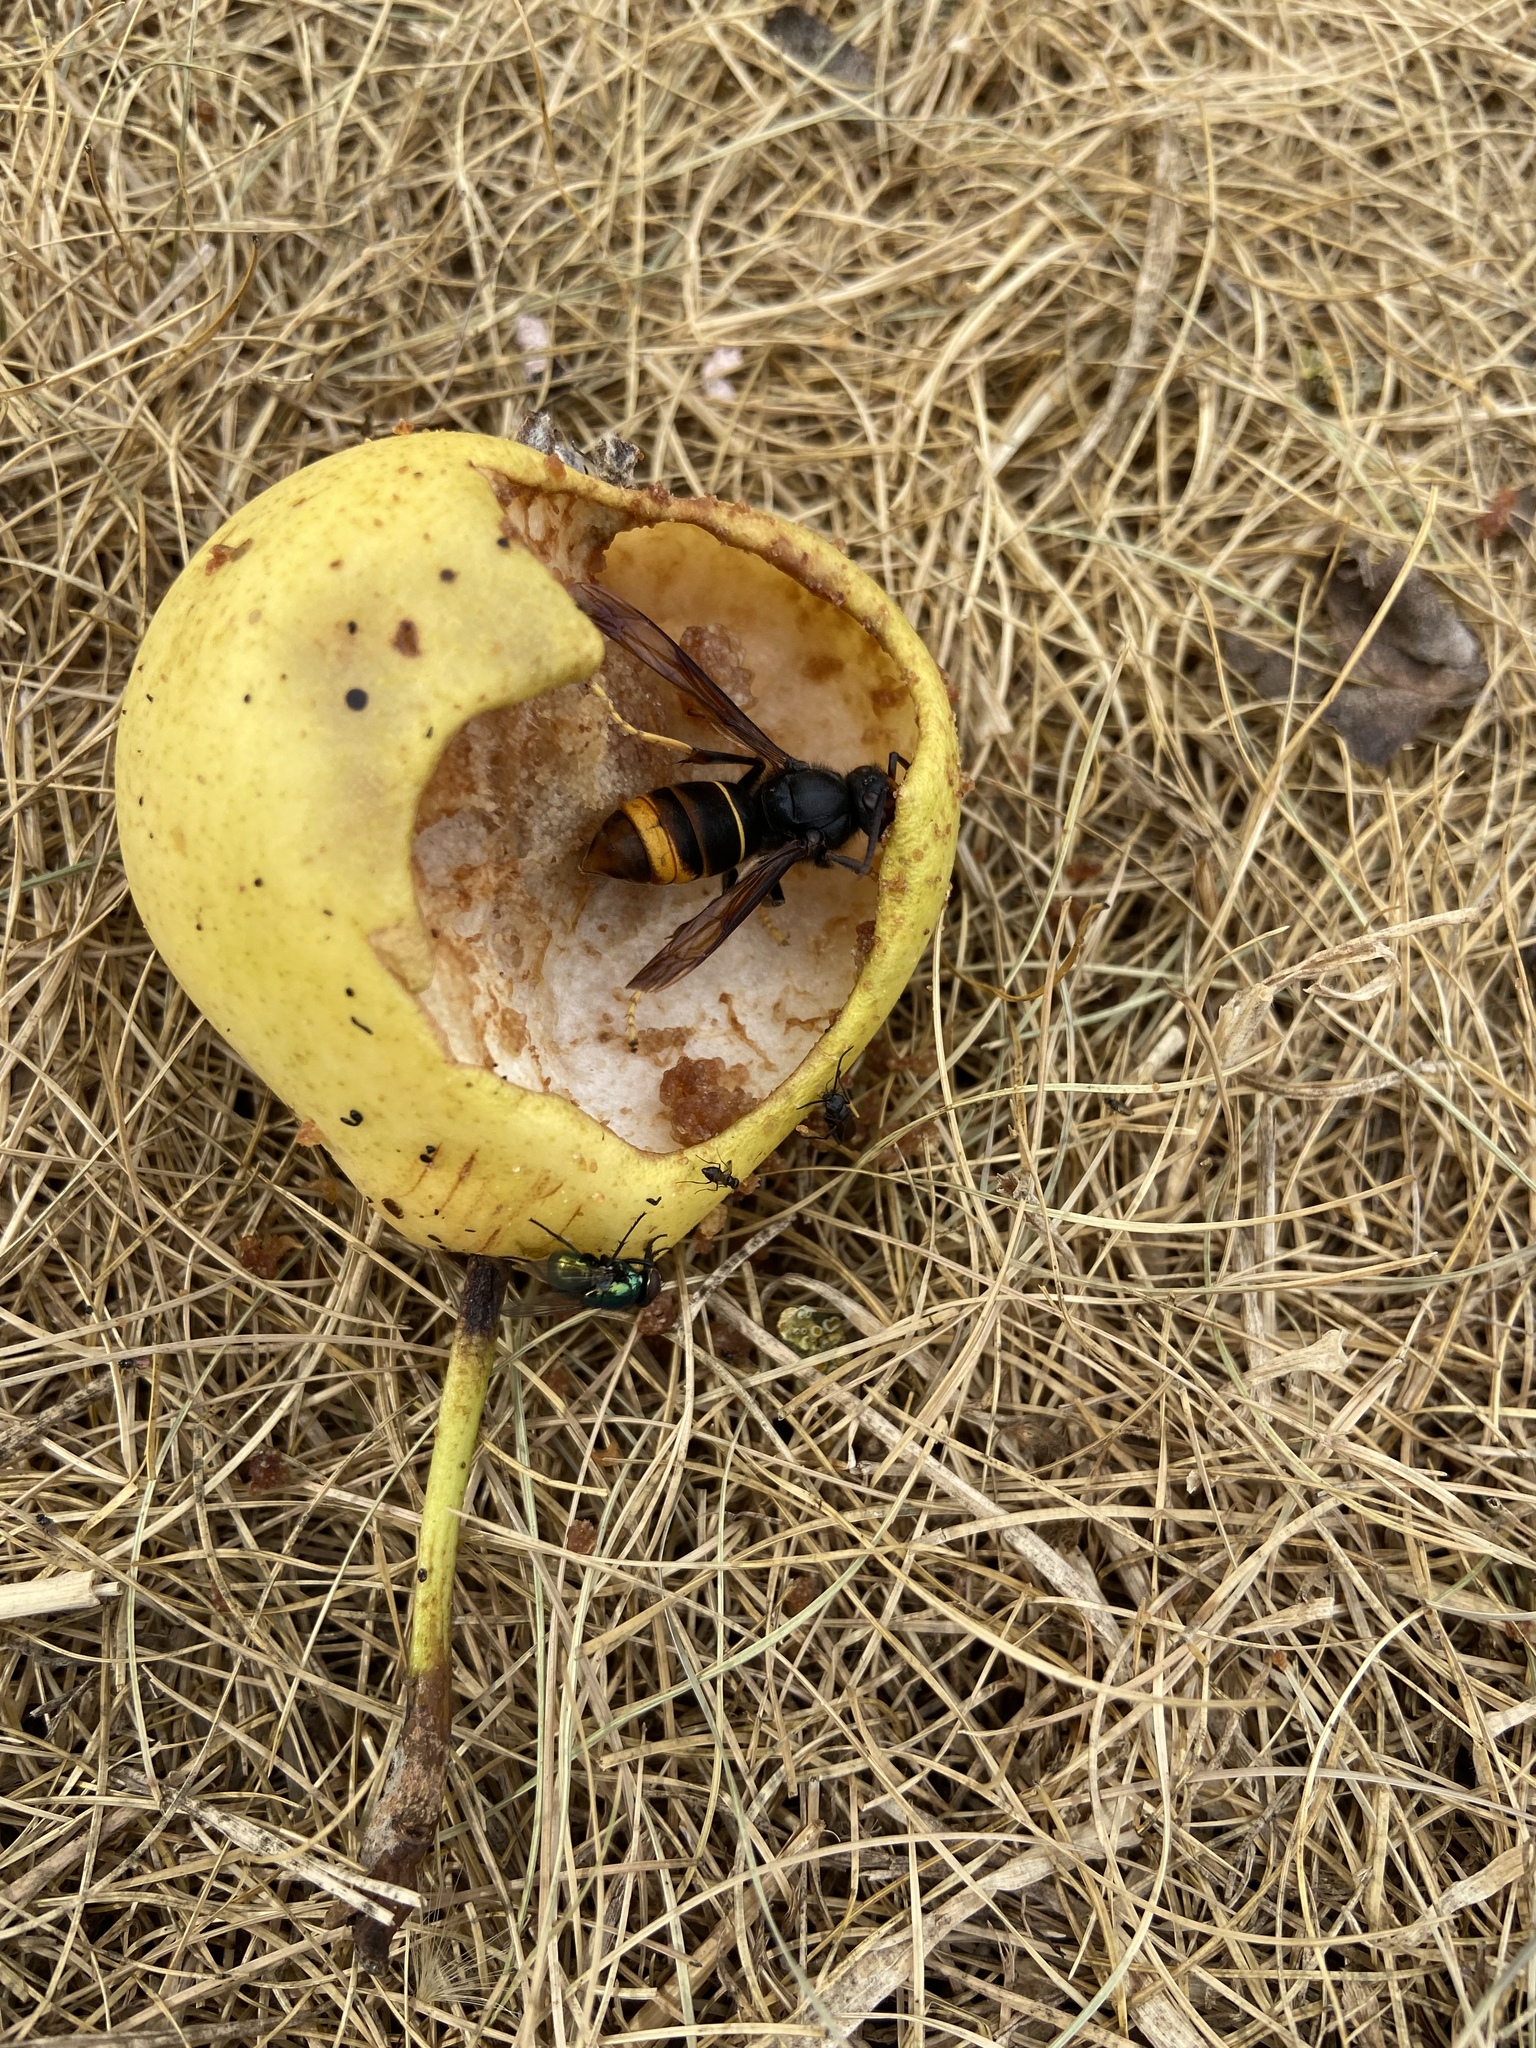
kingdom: Animalia
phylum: Arthropoda
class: Insecta
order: Hymenoptera
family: Vespidae
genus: Vespa
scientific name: Vespa velutina
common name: Asian hornet
